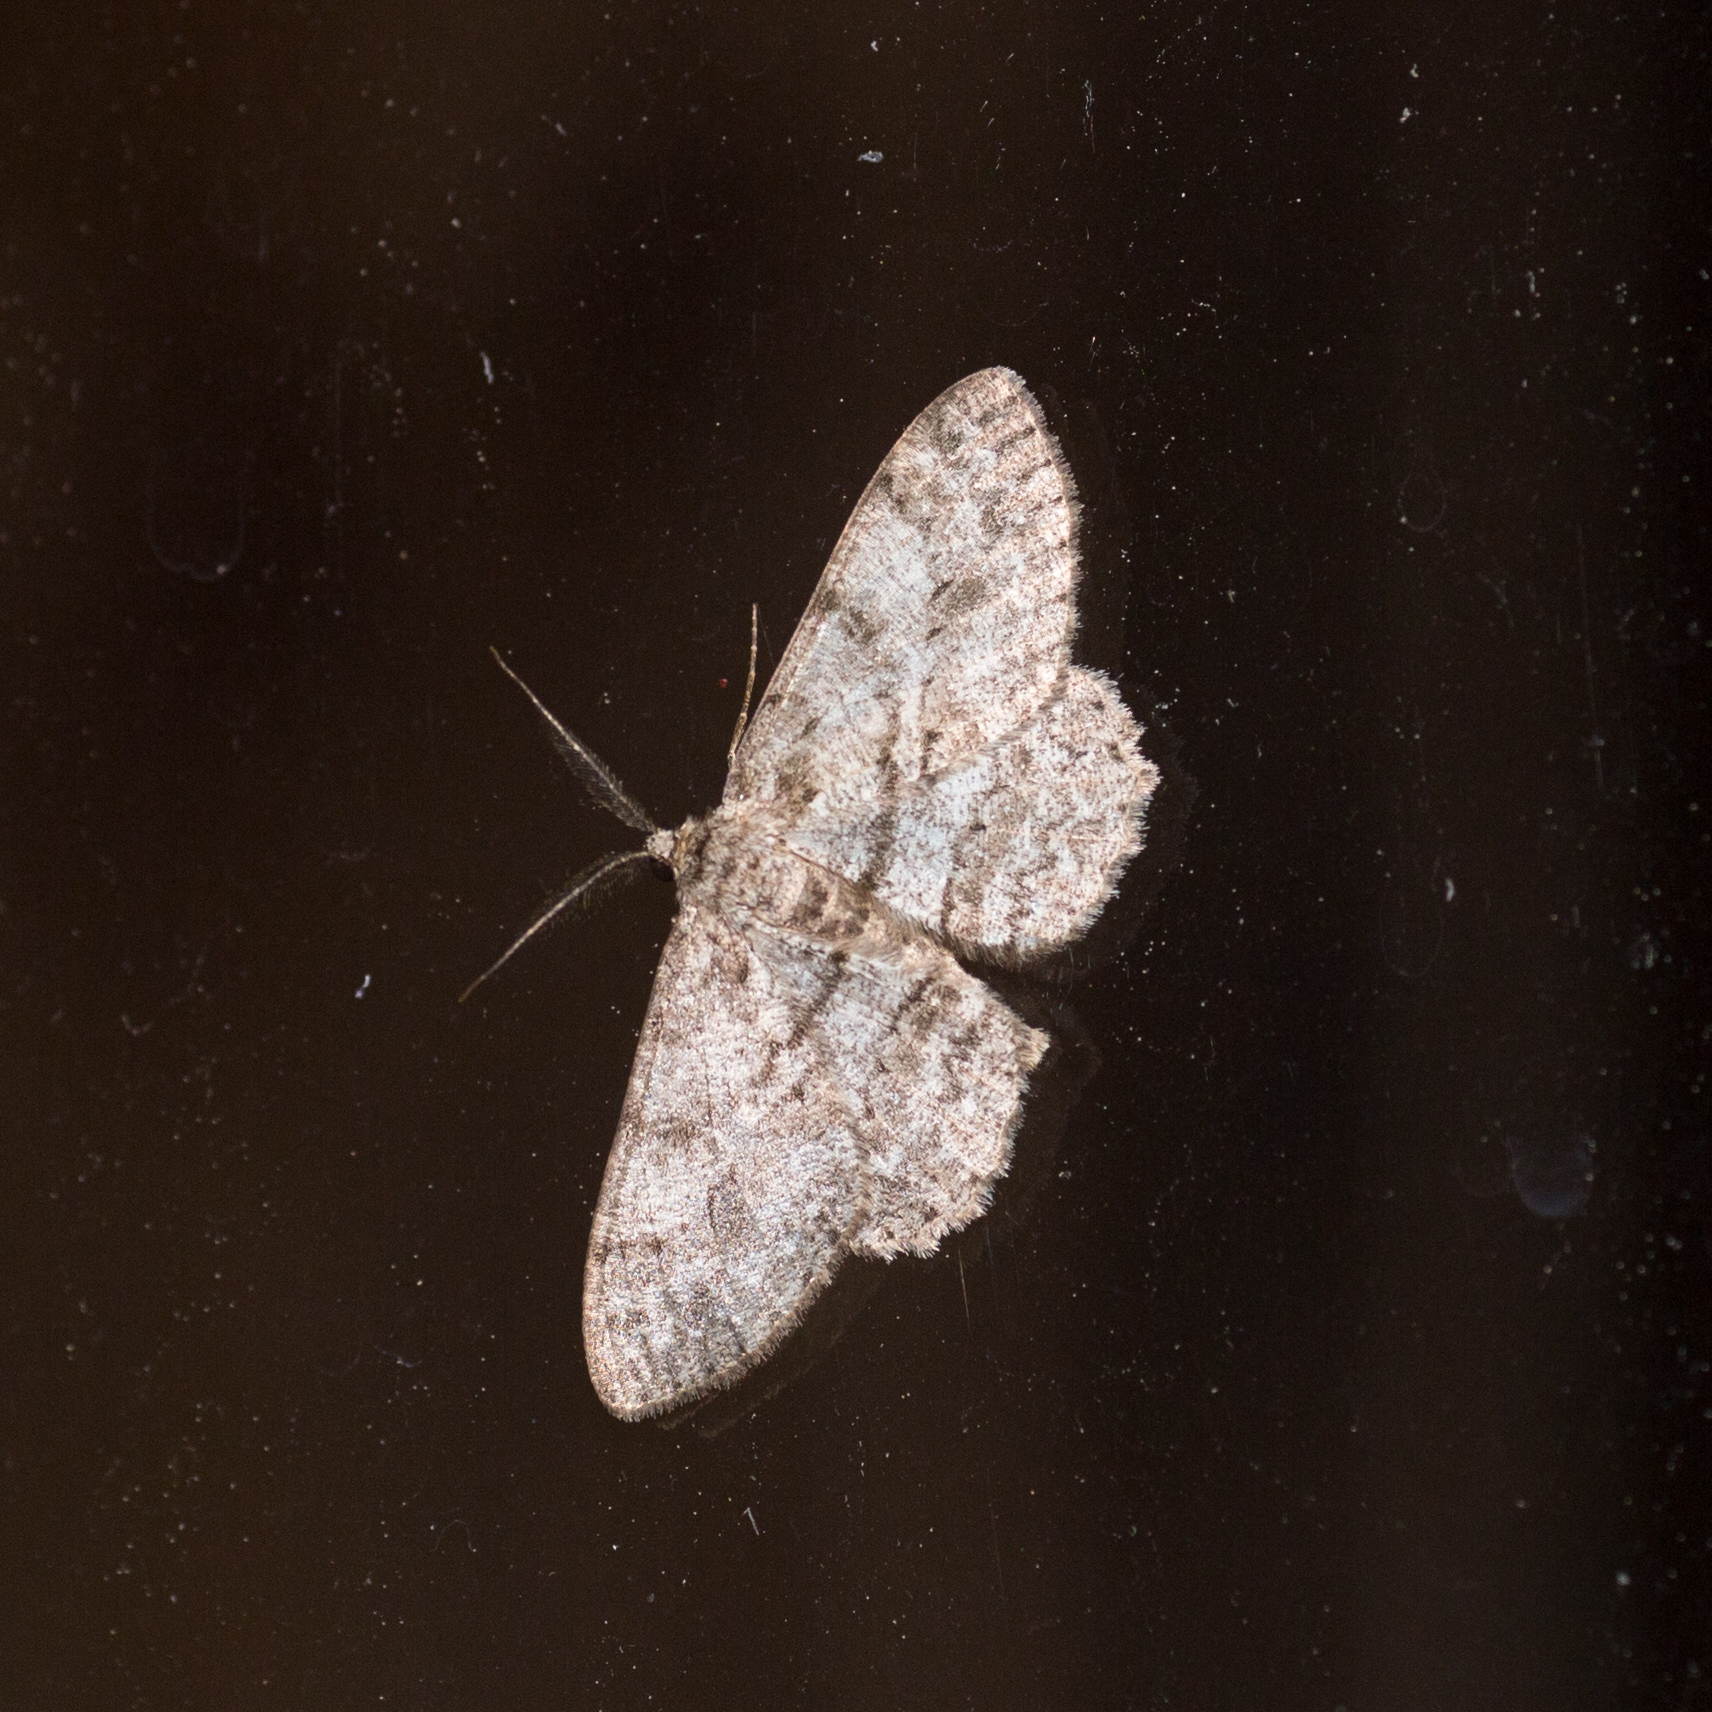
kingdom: Animalia
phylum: Arthropoda
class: Insecta
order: Lepidoptera
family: Geometridae
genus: Hypomecis
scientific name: Hypomecis punctinalis
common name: Pale oak beauty
